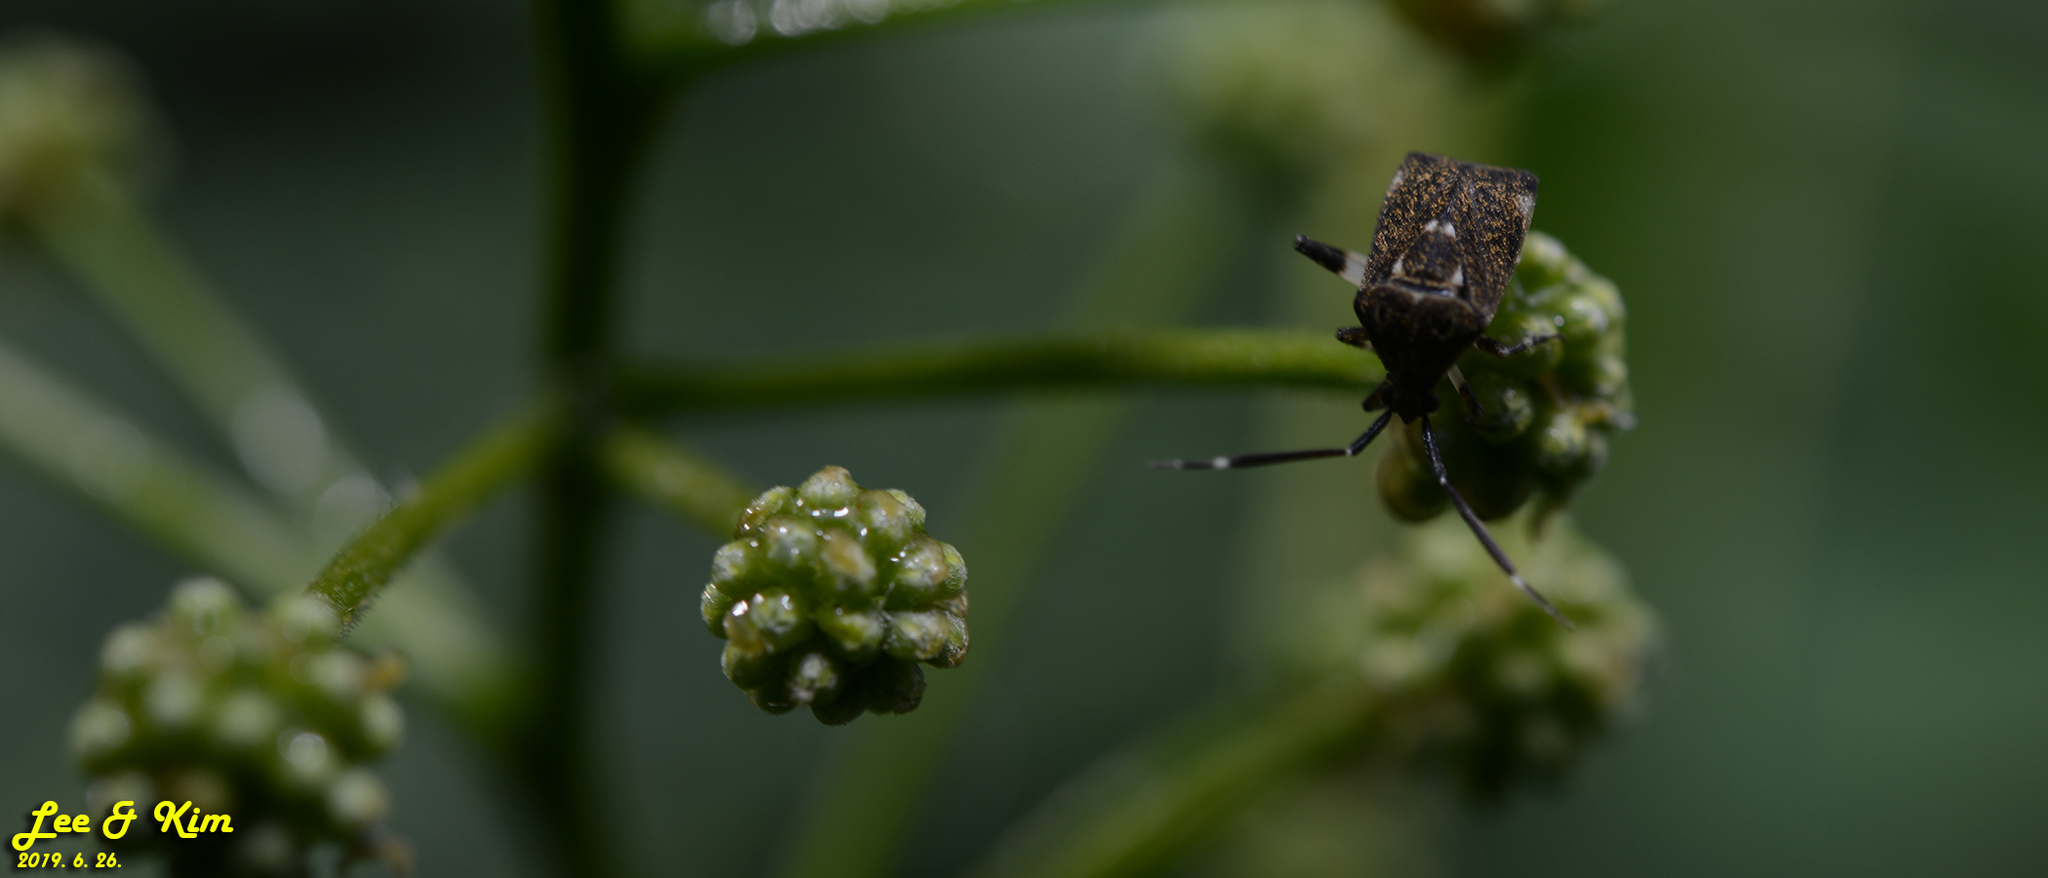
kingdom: Animalia
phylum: Arthropoda
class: Insecta
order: Hemiptera
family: Miridae
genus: Eurystylus
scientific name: Eurystylus coelestialium
